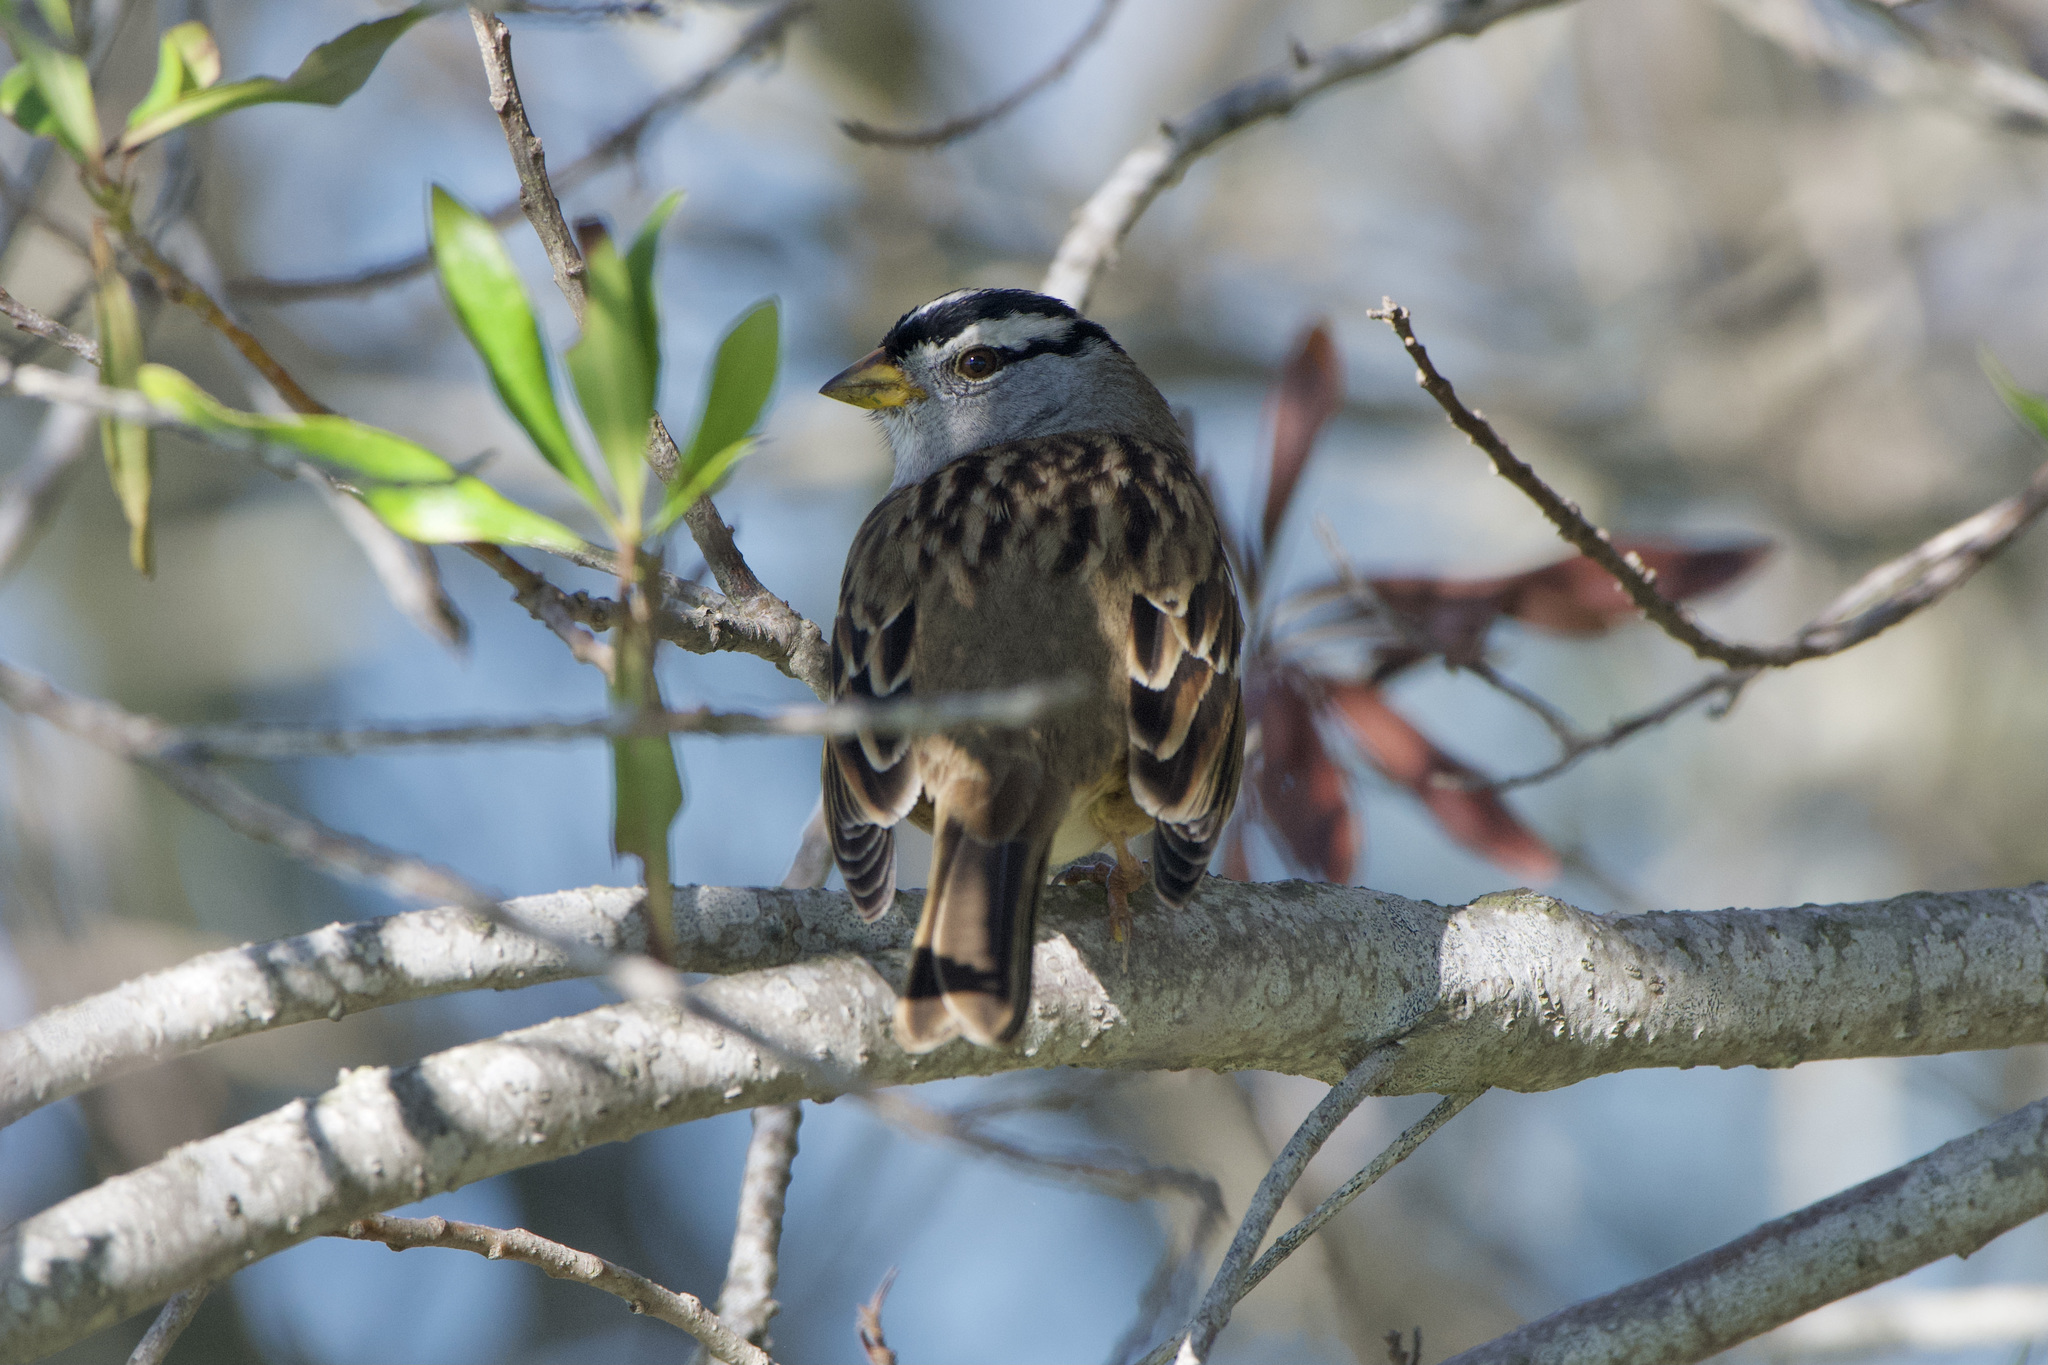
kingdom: Animalia
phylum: Chordata
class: Aves
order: Passeriformes
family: Passerellidae
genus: Zonotrichia
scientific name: Zonotrichia leucophrys
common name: White-crowned sparrow
